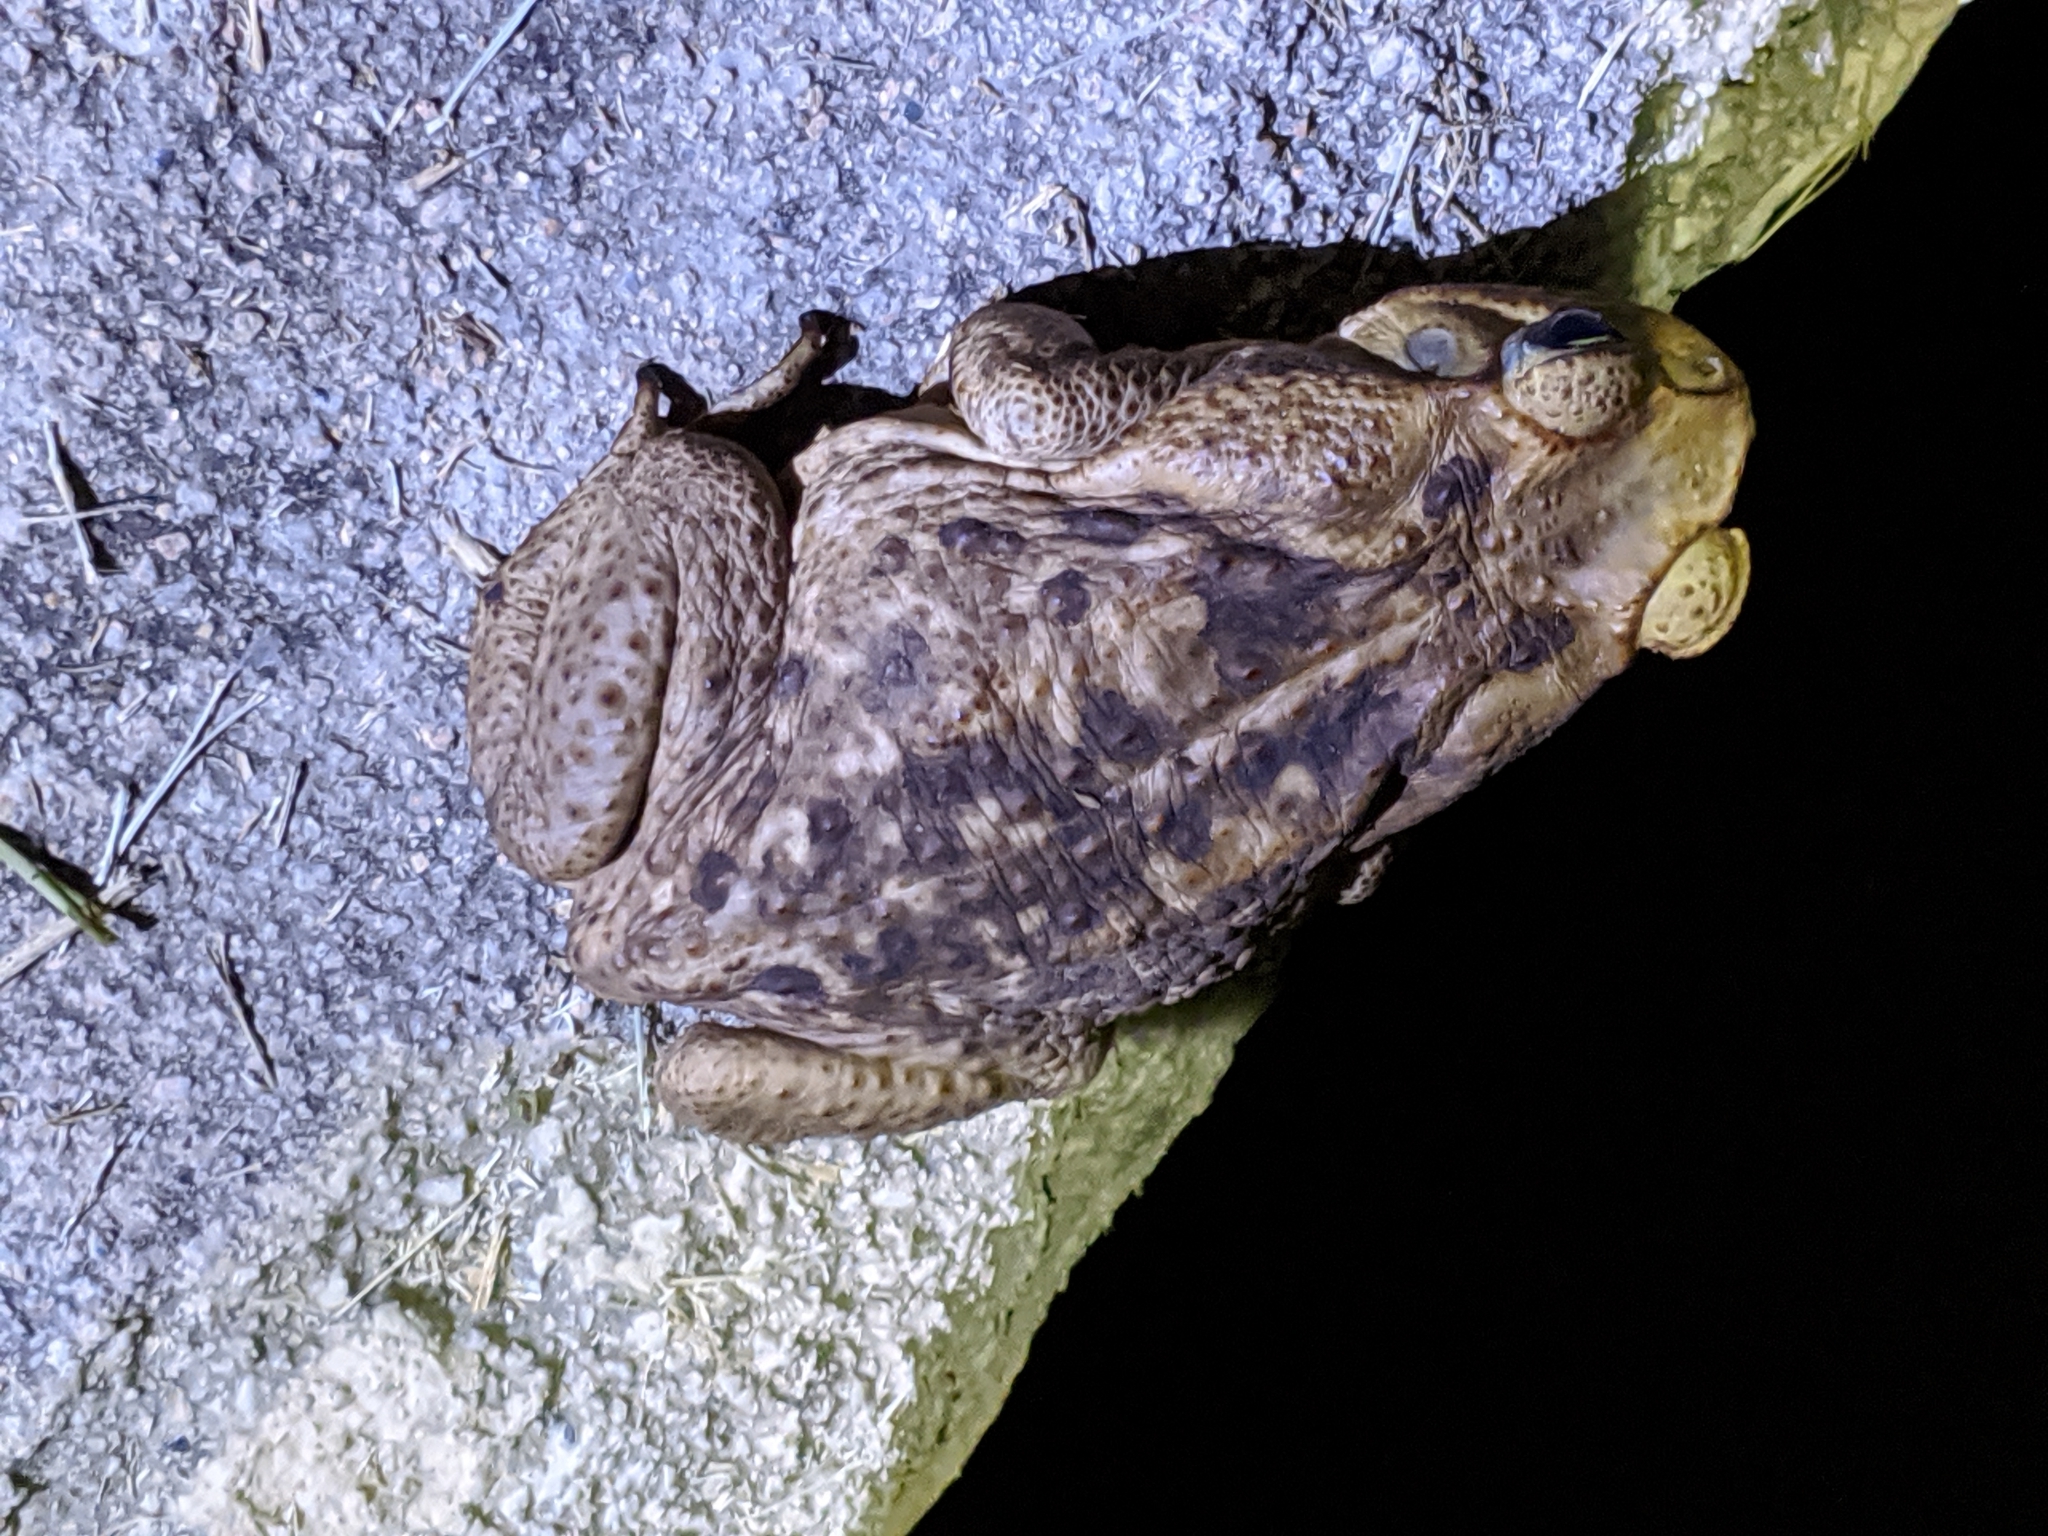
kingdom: Animalia
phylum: Chordata
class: Amphibia
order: Anura
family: Bufonidae
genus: Rhinella
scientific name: Rhinella horribilis
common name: Mesoamerican cane toad
